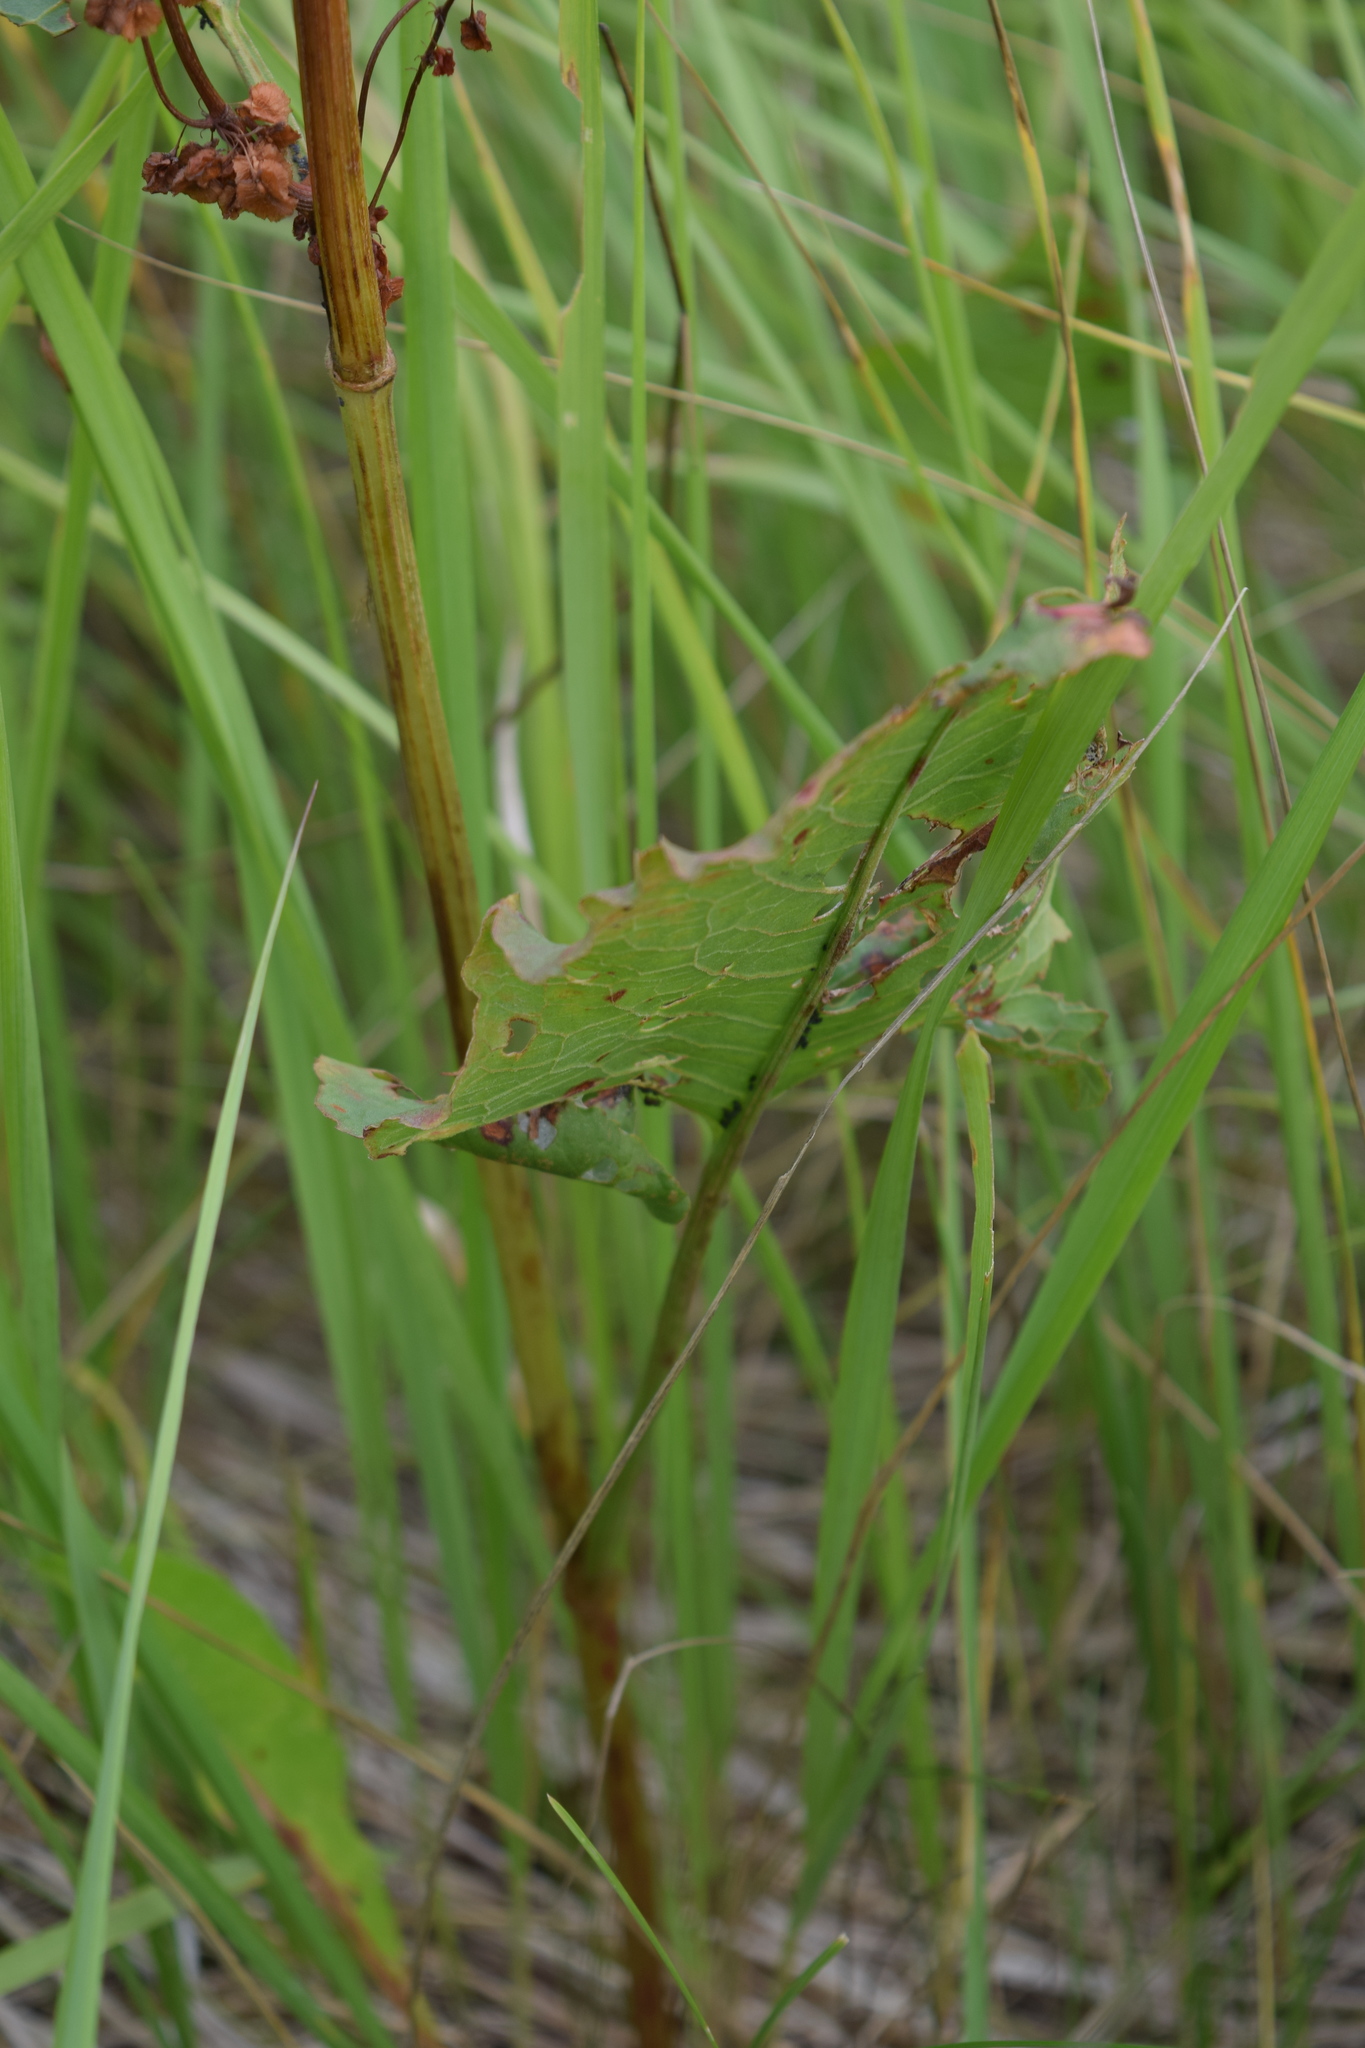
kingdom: Plantae
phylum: Tracheophyta
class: Magnoliopsida
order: Caryophyllales
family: Polygonaceae
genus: Rumex
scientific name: Rumex confertus
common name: Russian dock
